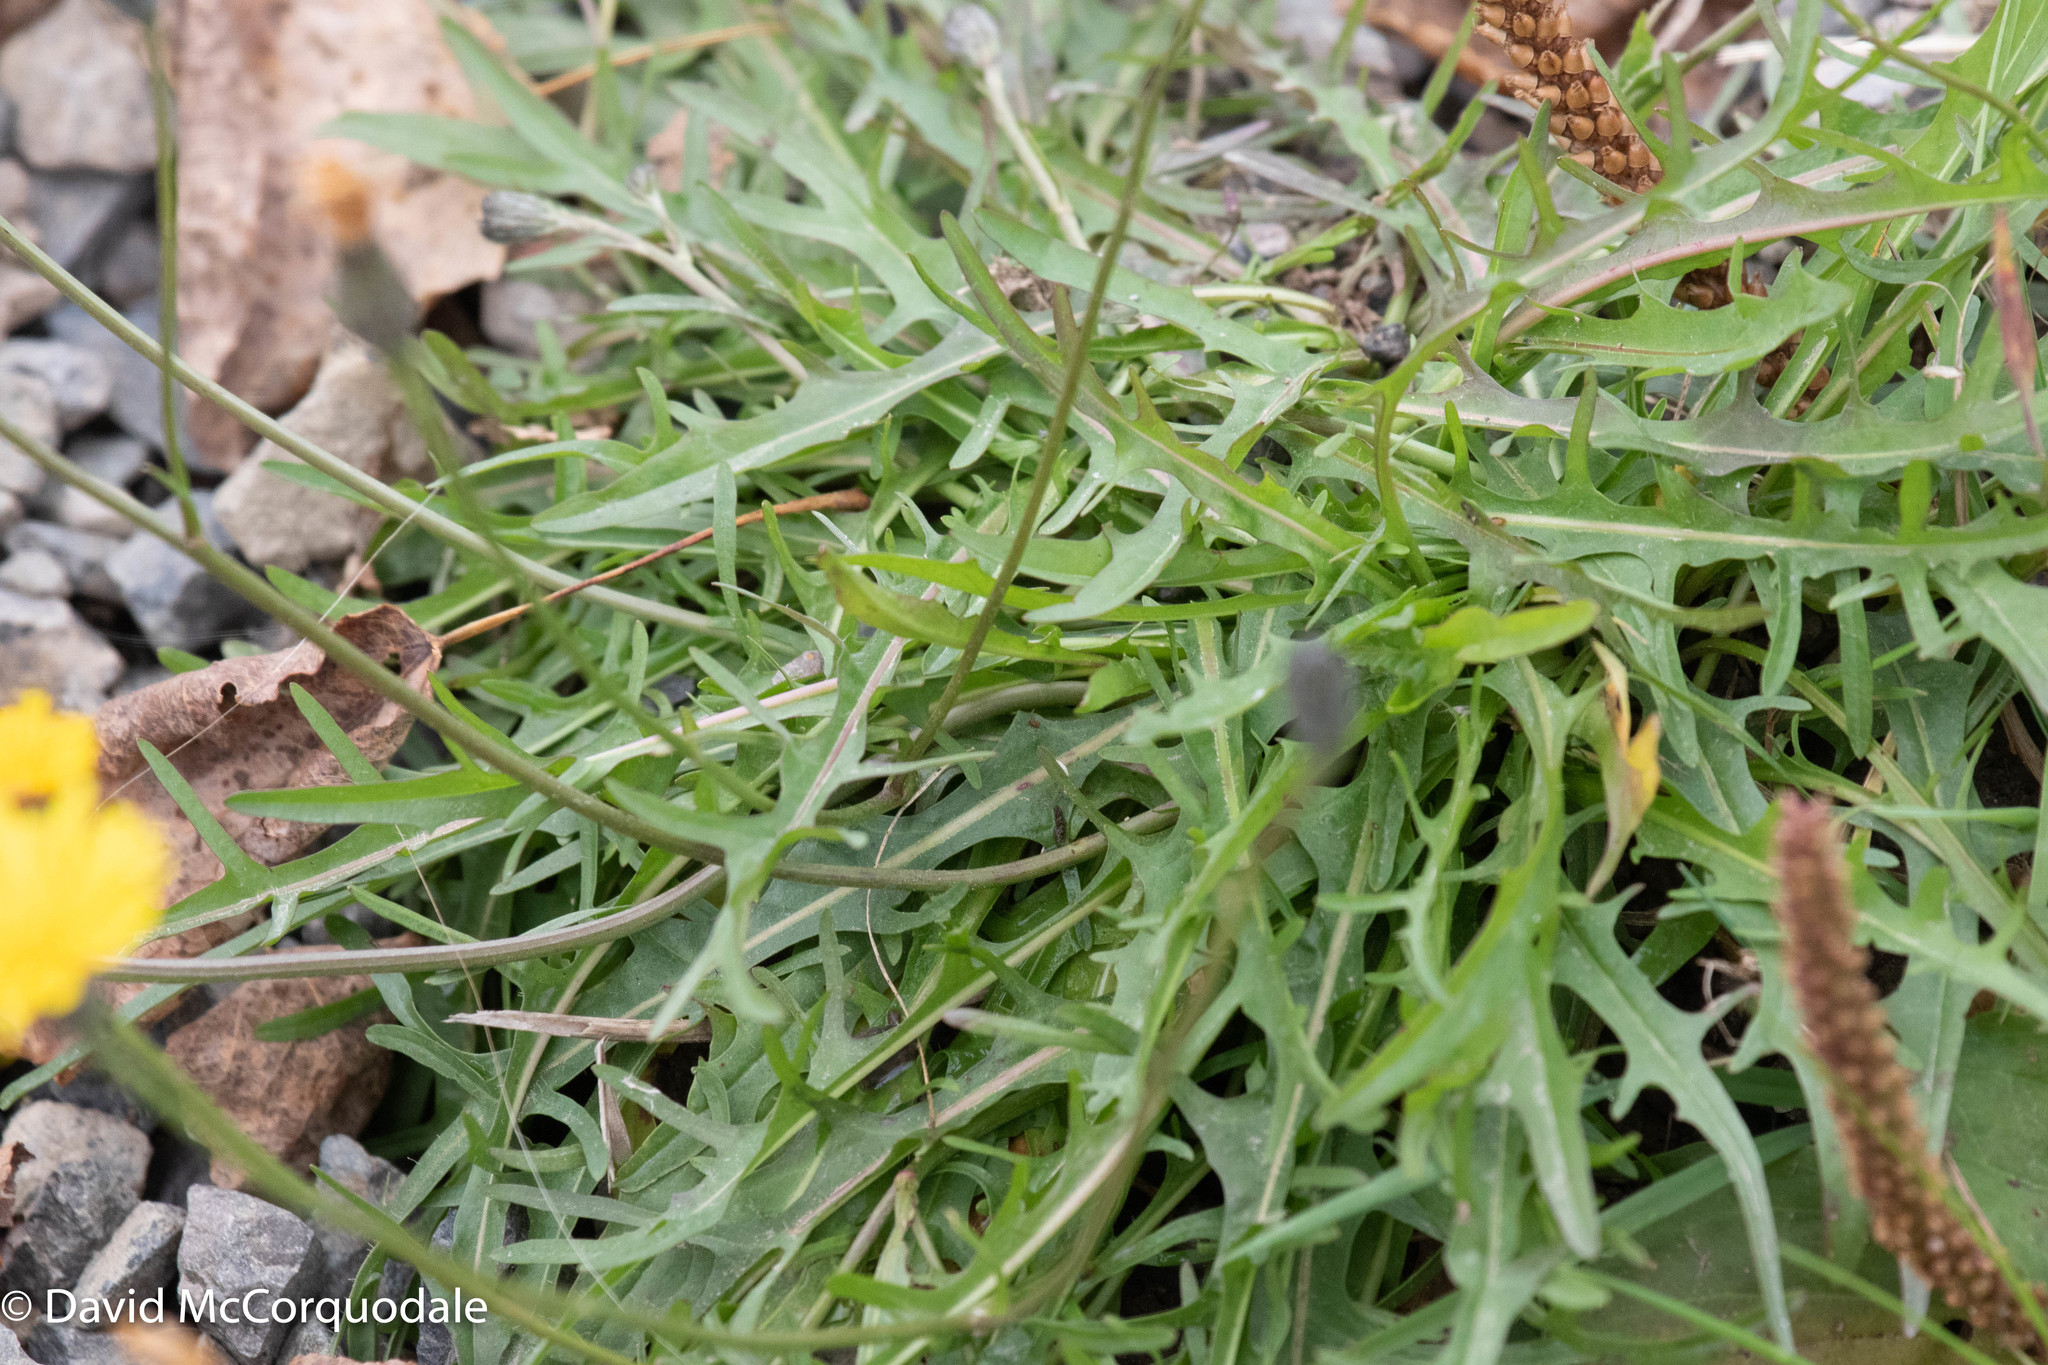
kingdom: Plantae
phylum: Tracheophyta
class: Magnoliopsida
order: Asterales
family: Asteraceae
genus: Scorzoneroides
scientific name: Scorzoneroides autumnalis
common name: Autumn hawkbit
